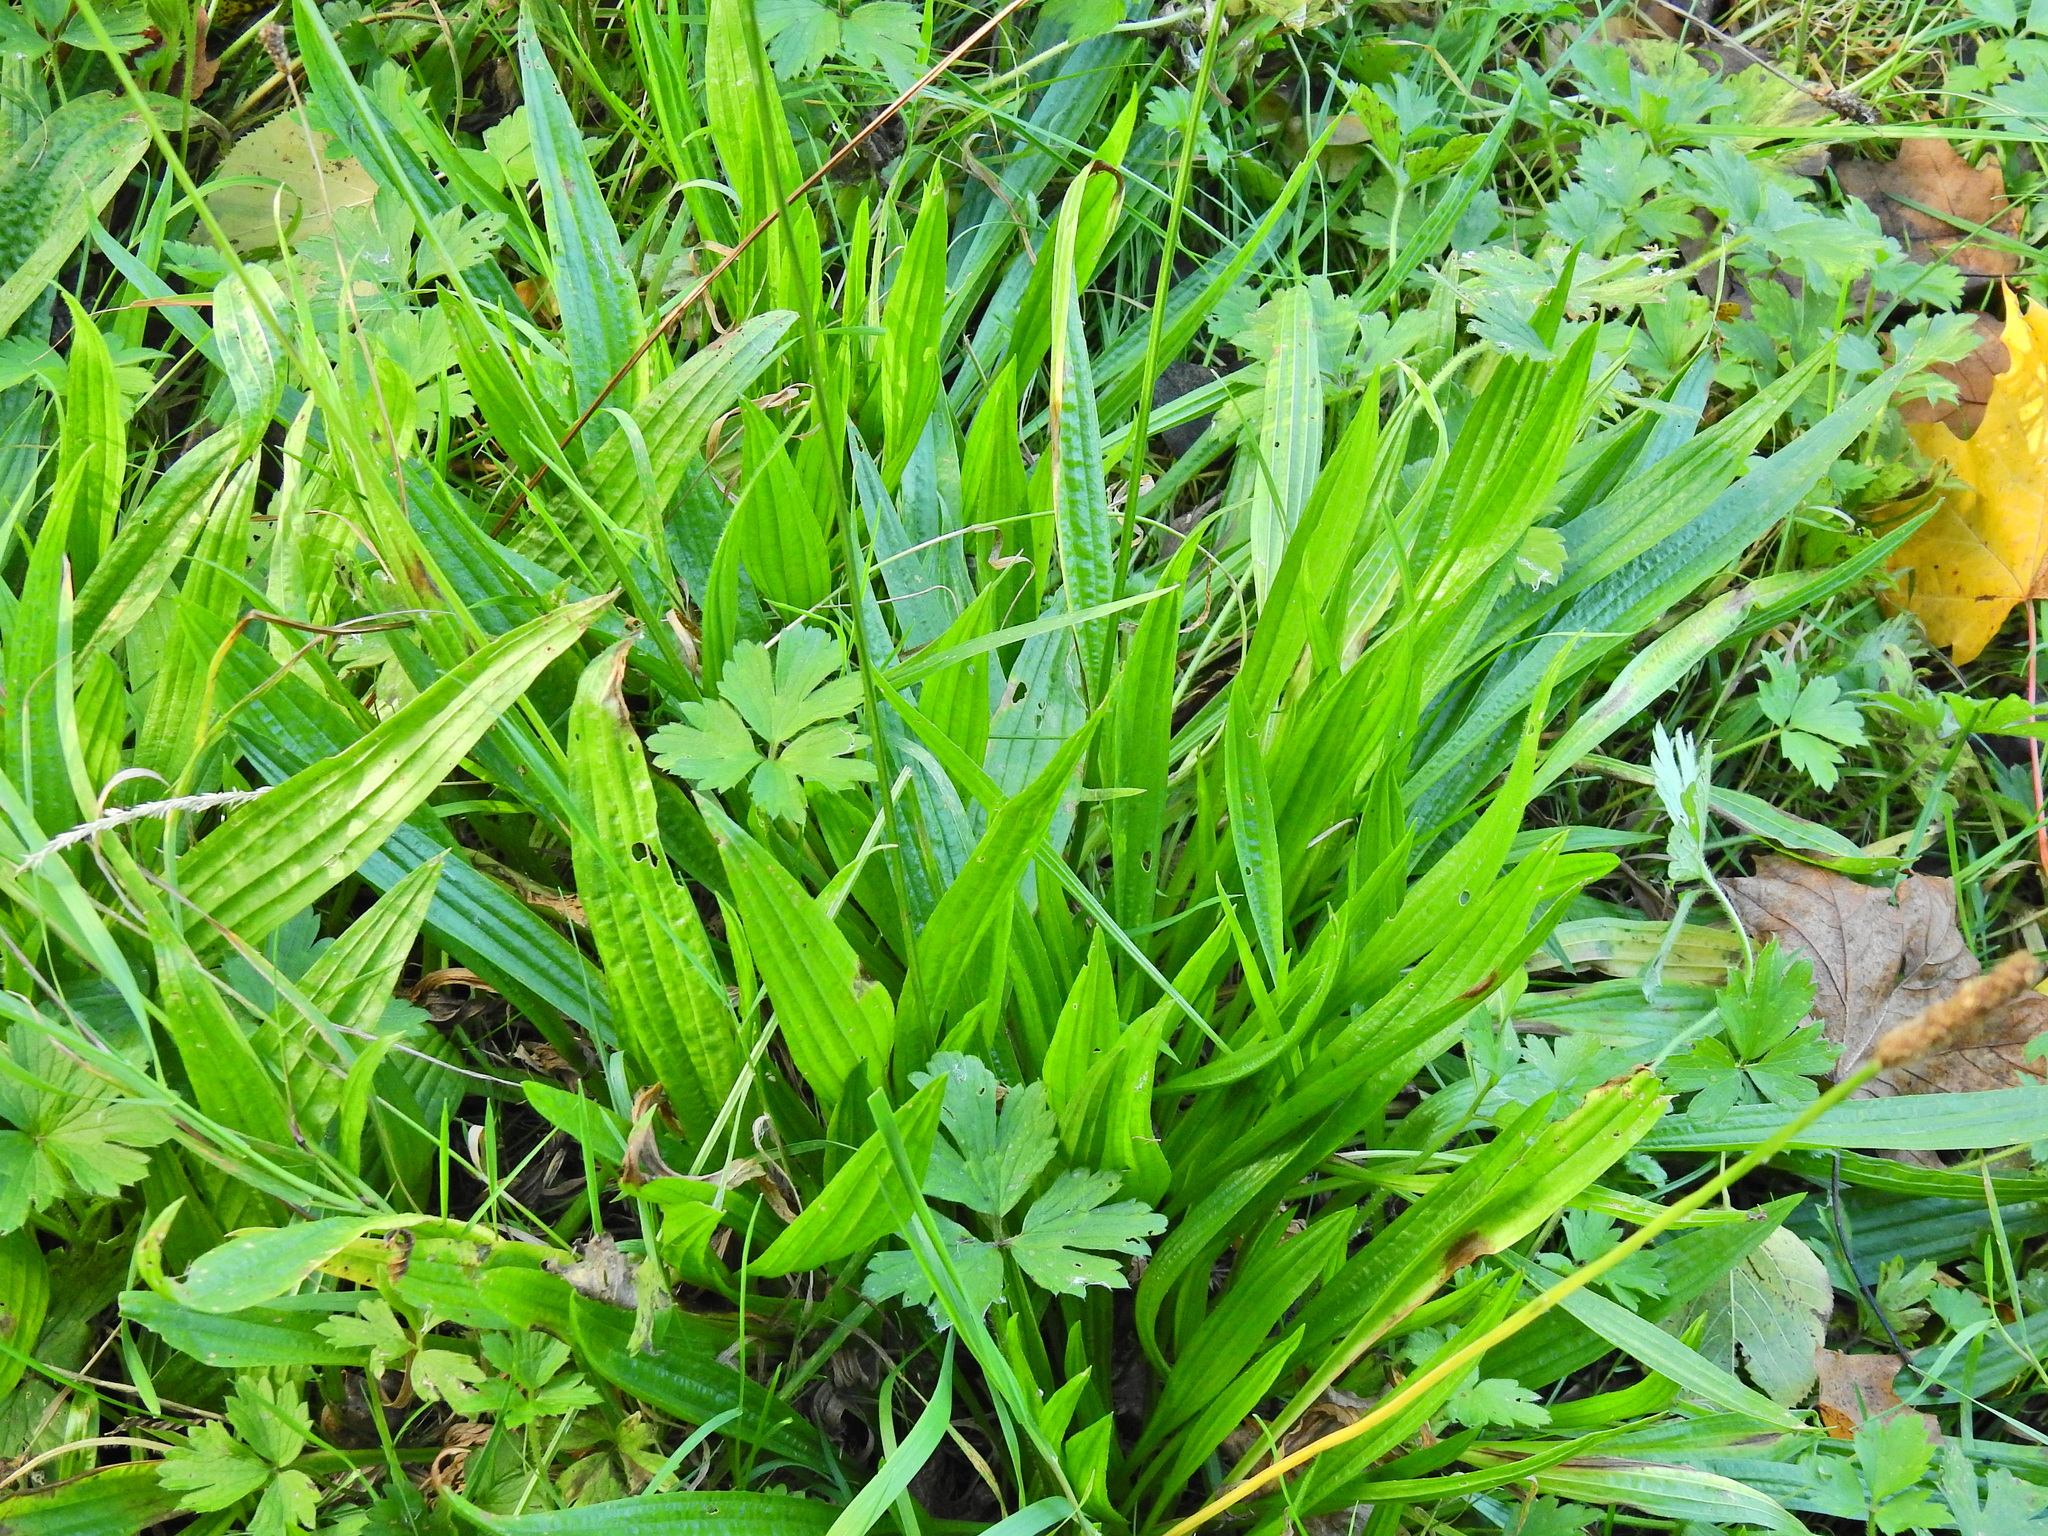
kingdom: Plantae
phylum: Tracheophyta
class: Magnoliopsida
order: Lamiales
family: Plantaginaceae
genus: Plantago
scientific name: Plantago lanceolata
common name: Ribwort plantain
